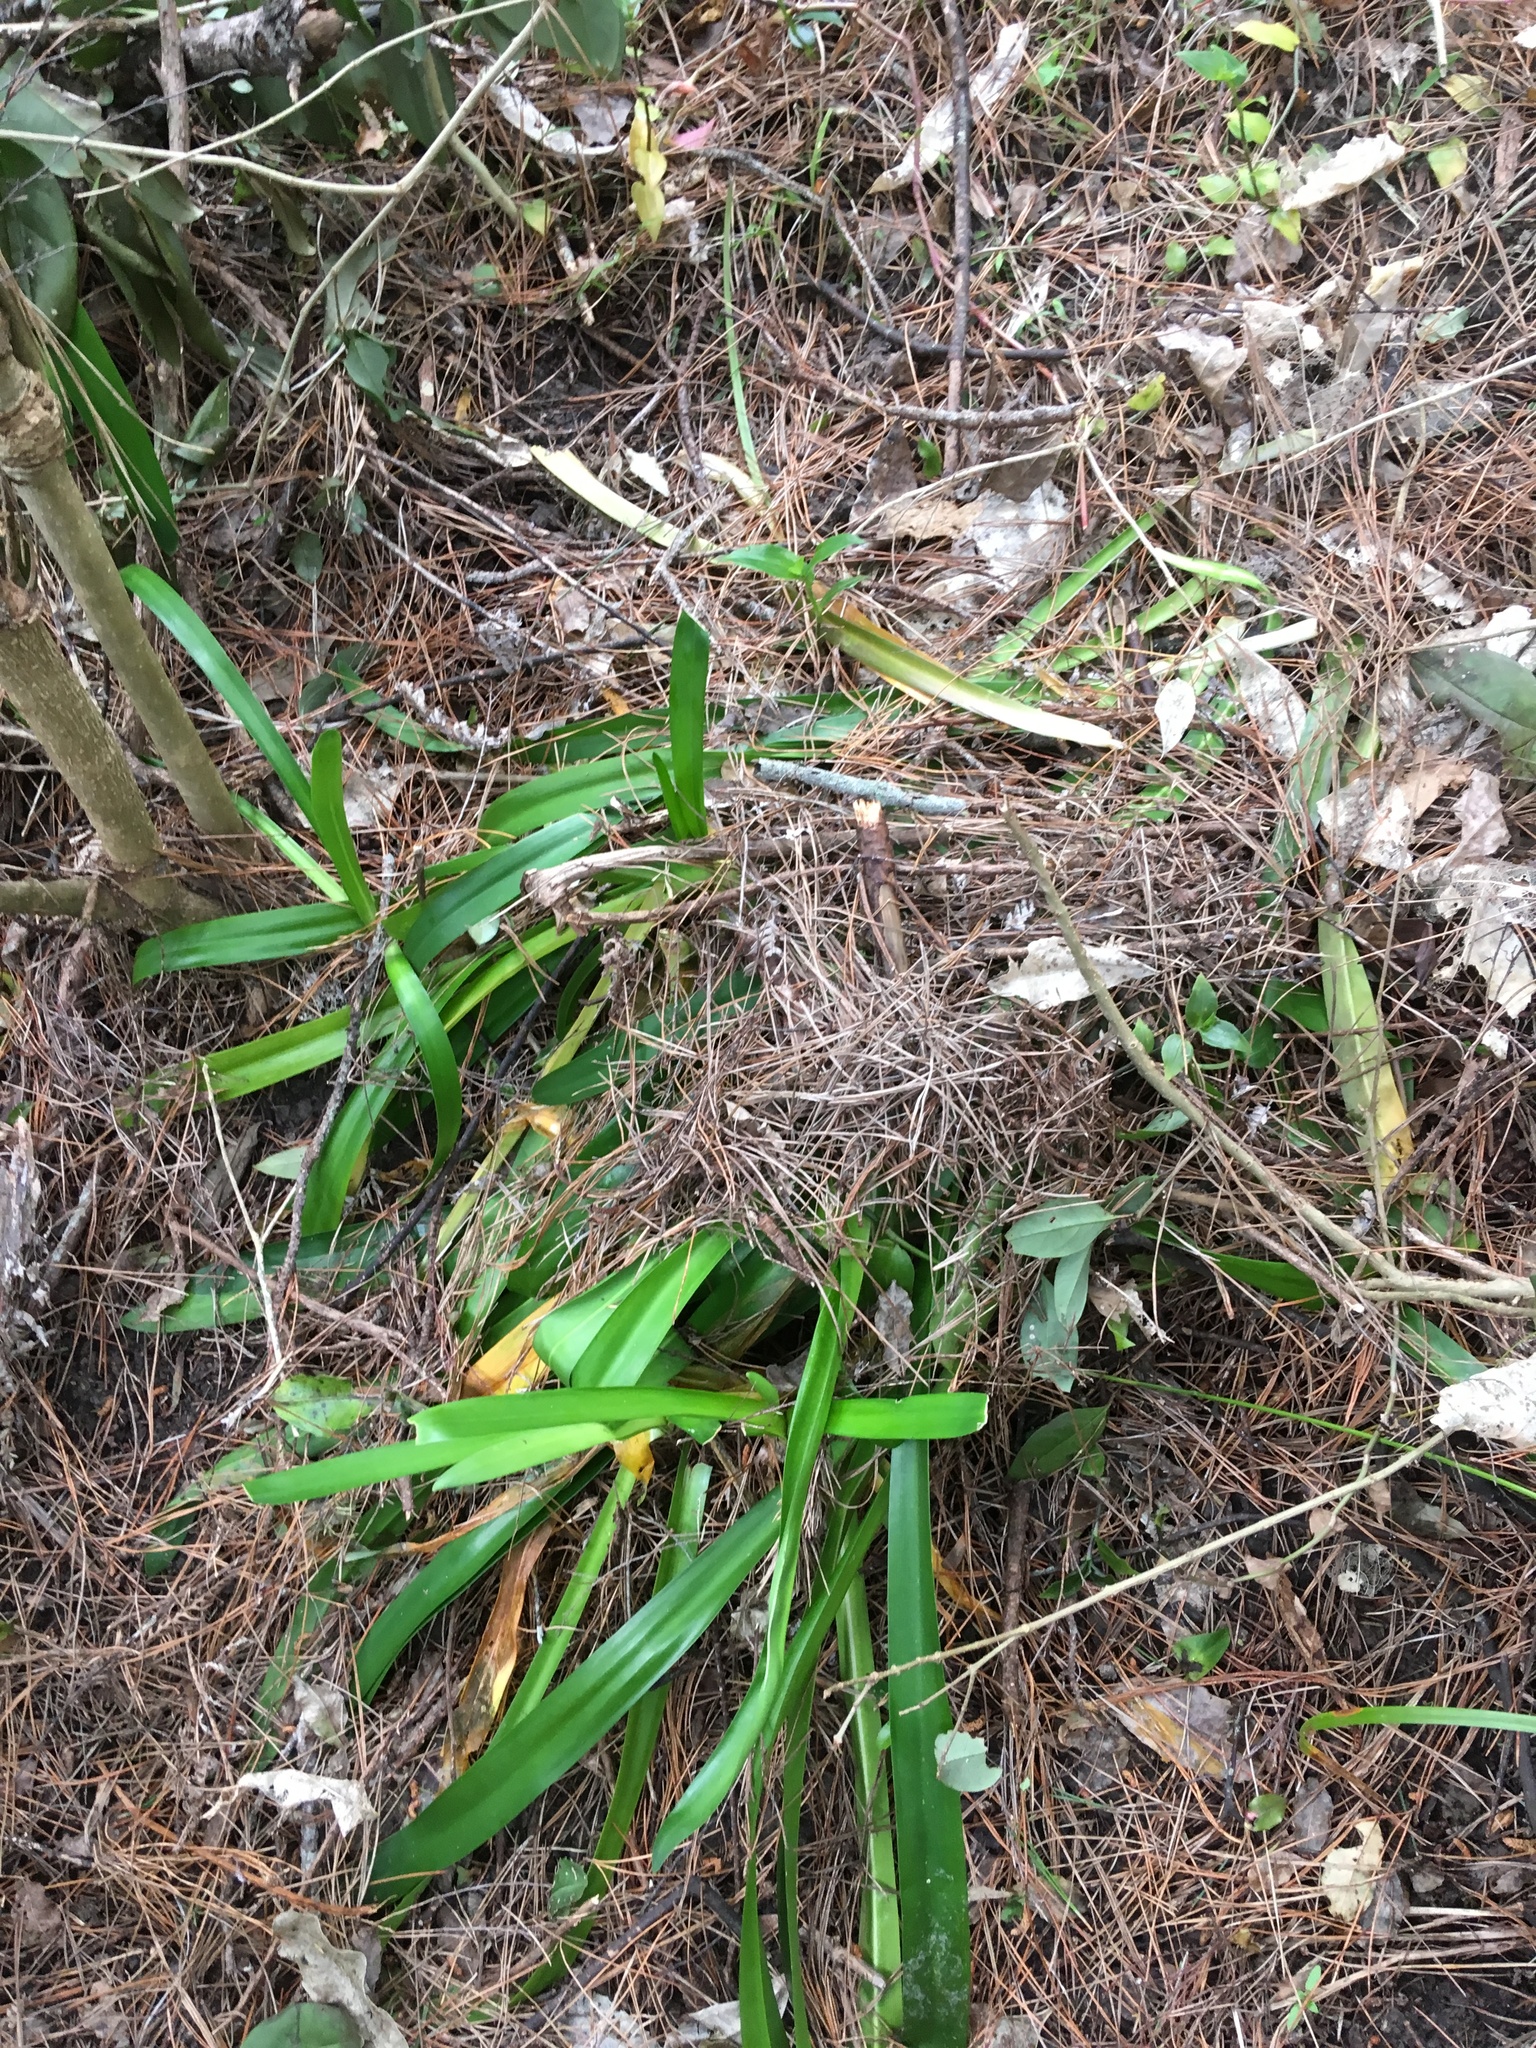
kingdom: Plantae
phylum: Tracheophyta
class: Liliopsida
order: Asparagales
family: Amaryllidaceae
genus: Agapanthus
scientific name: Agapanthus praecox
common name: African-lily
